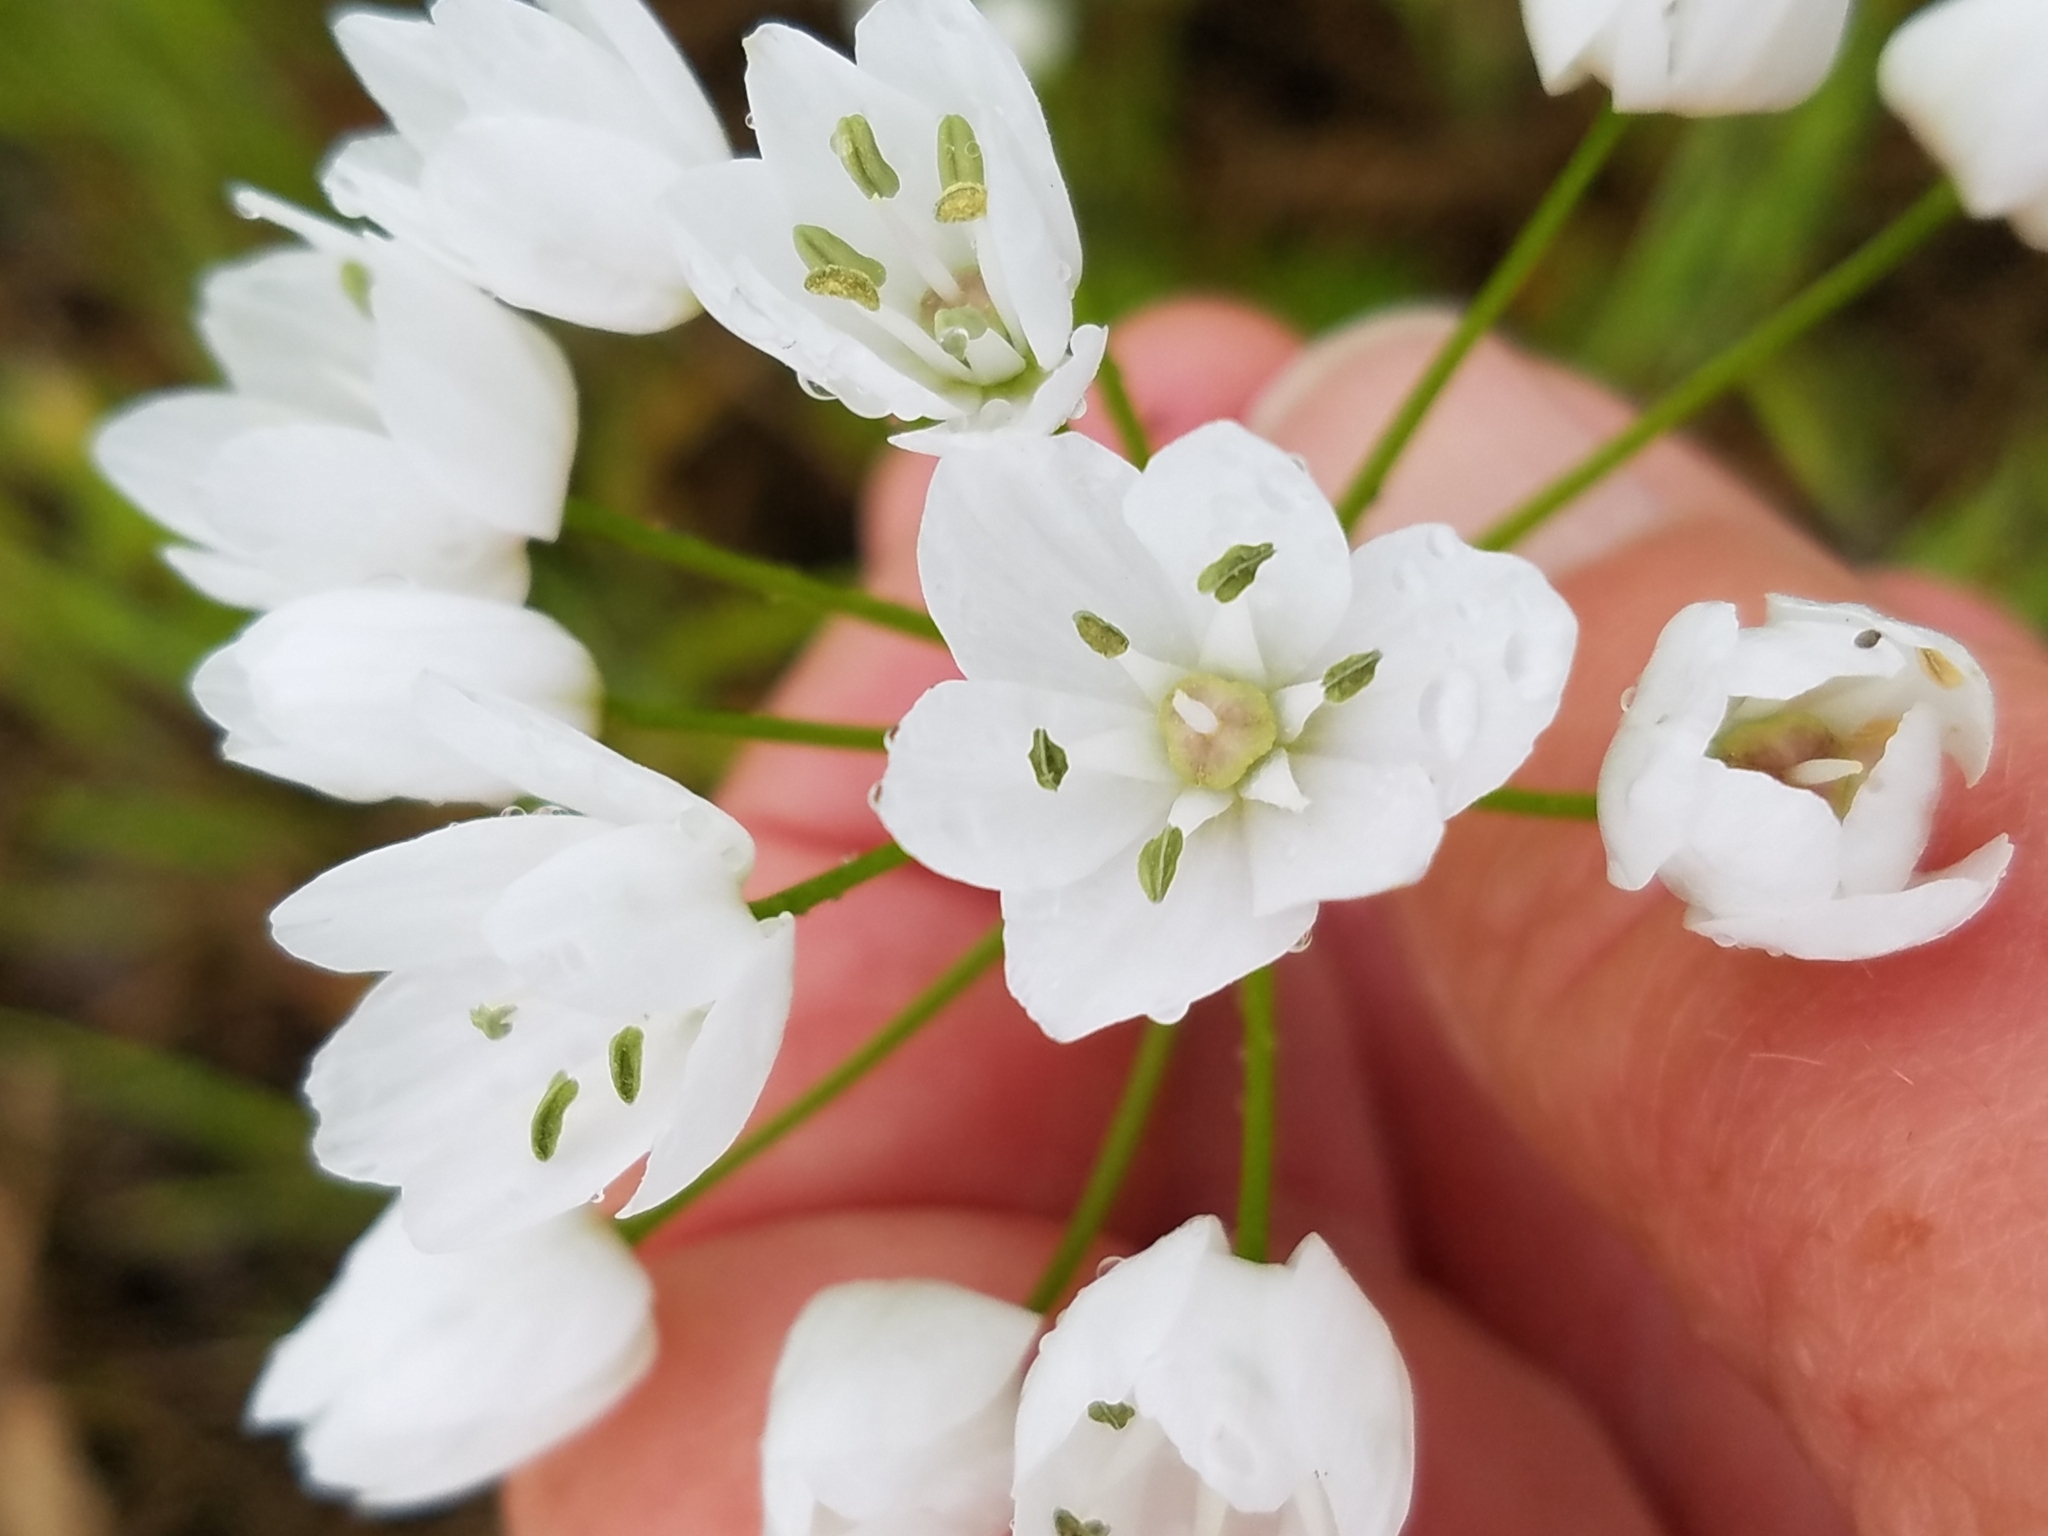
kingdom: Plantae
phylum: Tracheophyta
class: Liliopsida
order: Asparagales
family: Amaryllidaceae
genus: Allium
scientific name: Allium neapolitanum
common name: Neapolitan garlic
